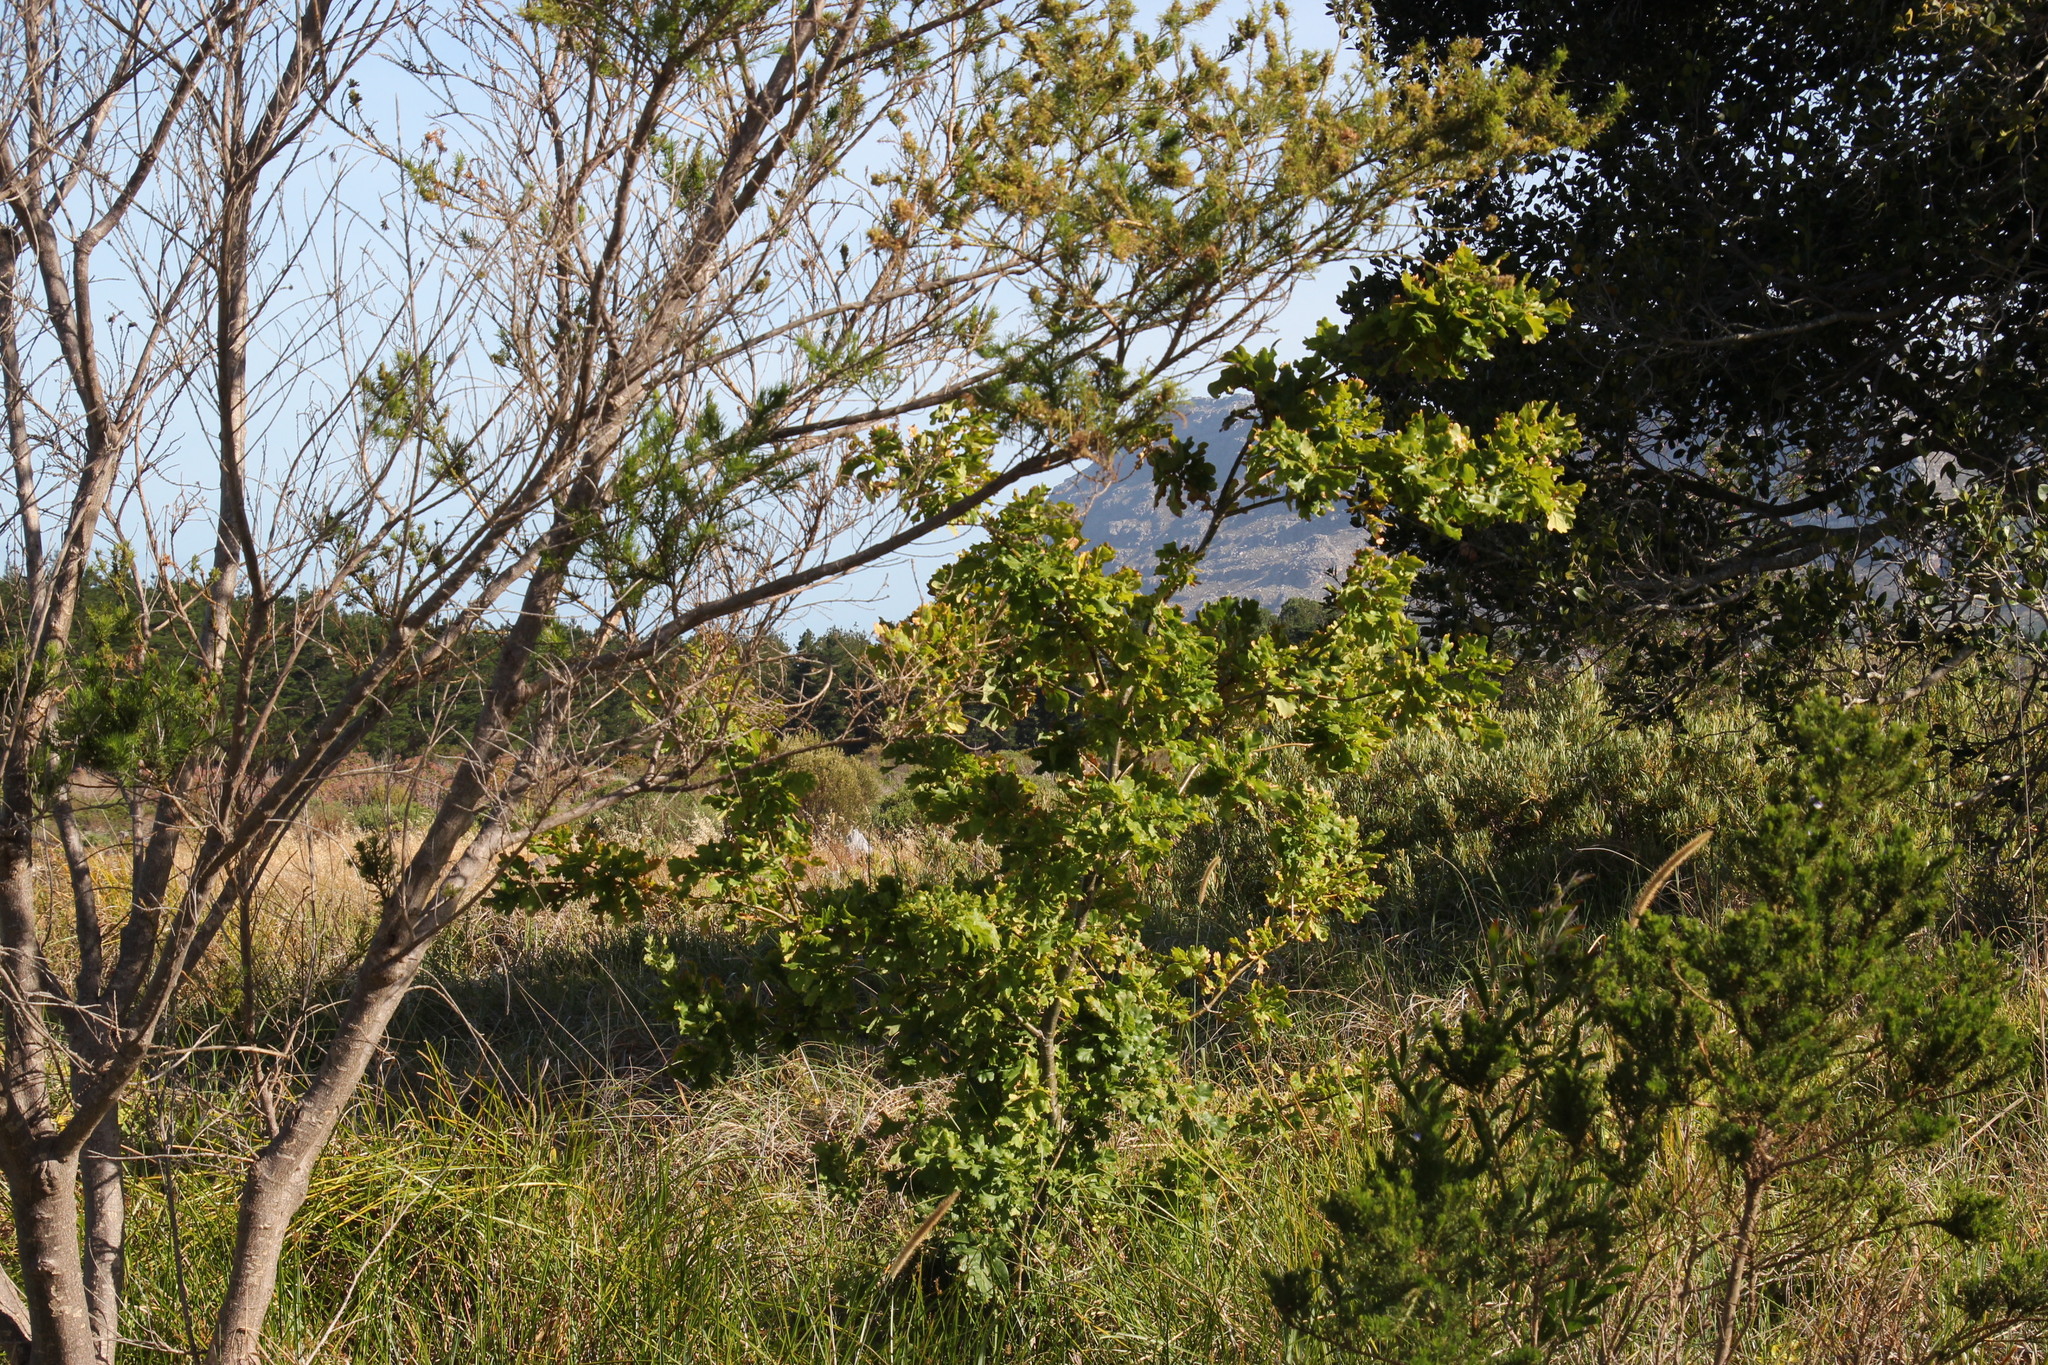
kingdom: Plantae
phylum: Tracheophyta
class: Magnoliopsida
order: Fagales
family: Fagaceae
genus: Quercus
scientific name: Quercus robur
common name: Pedunculate oak
